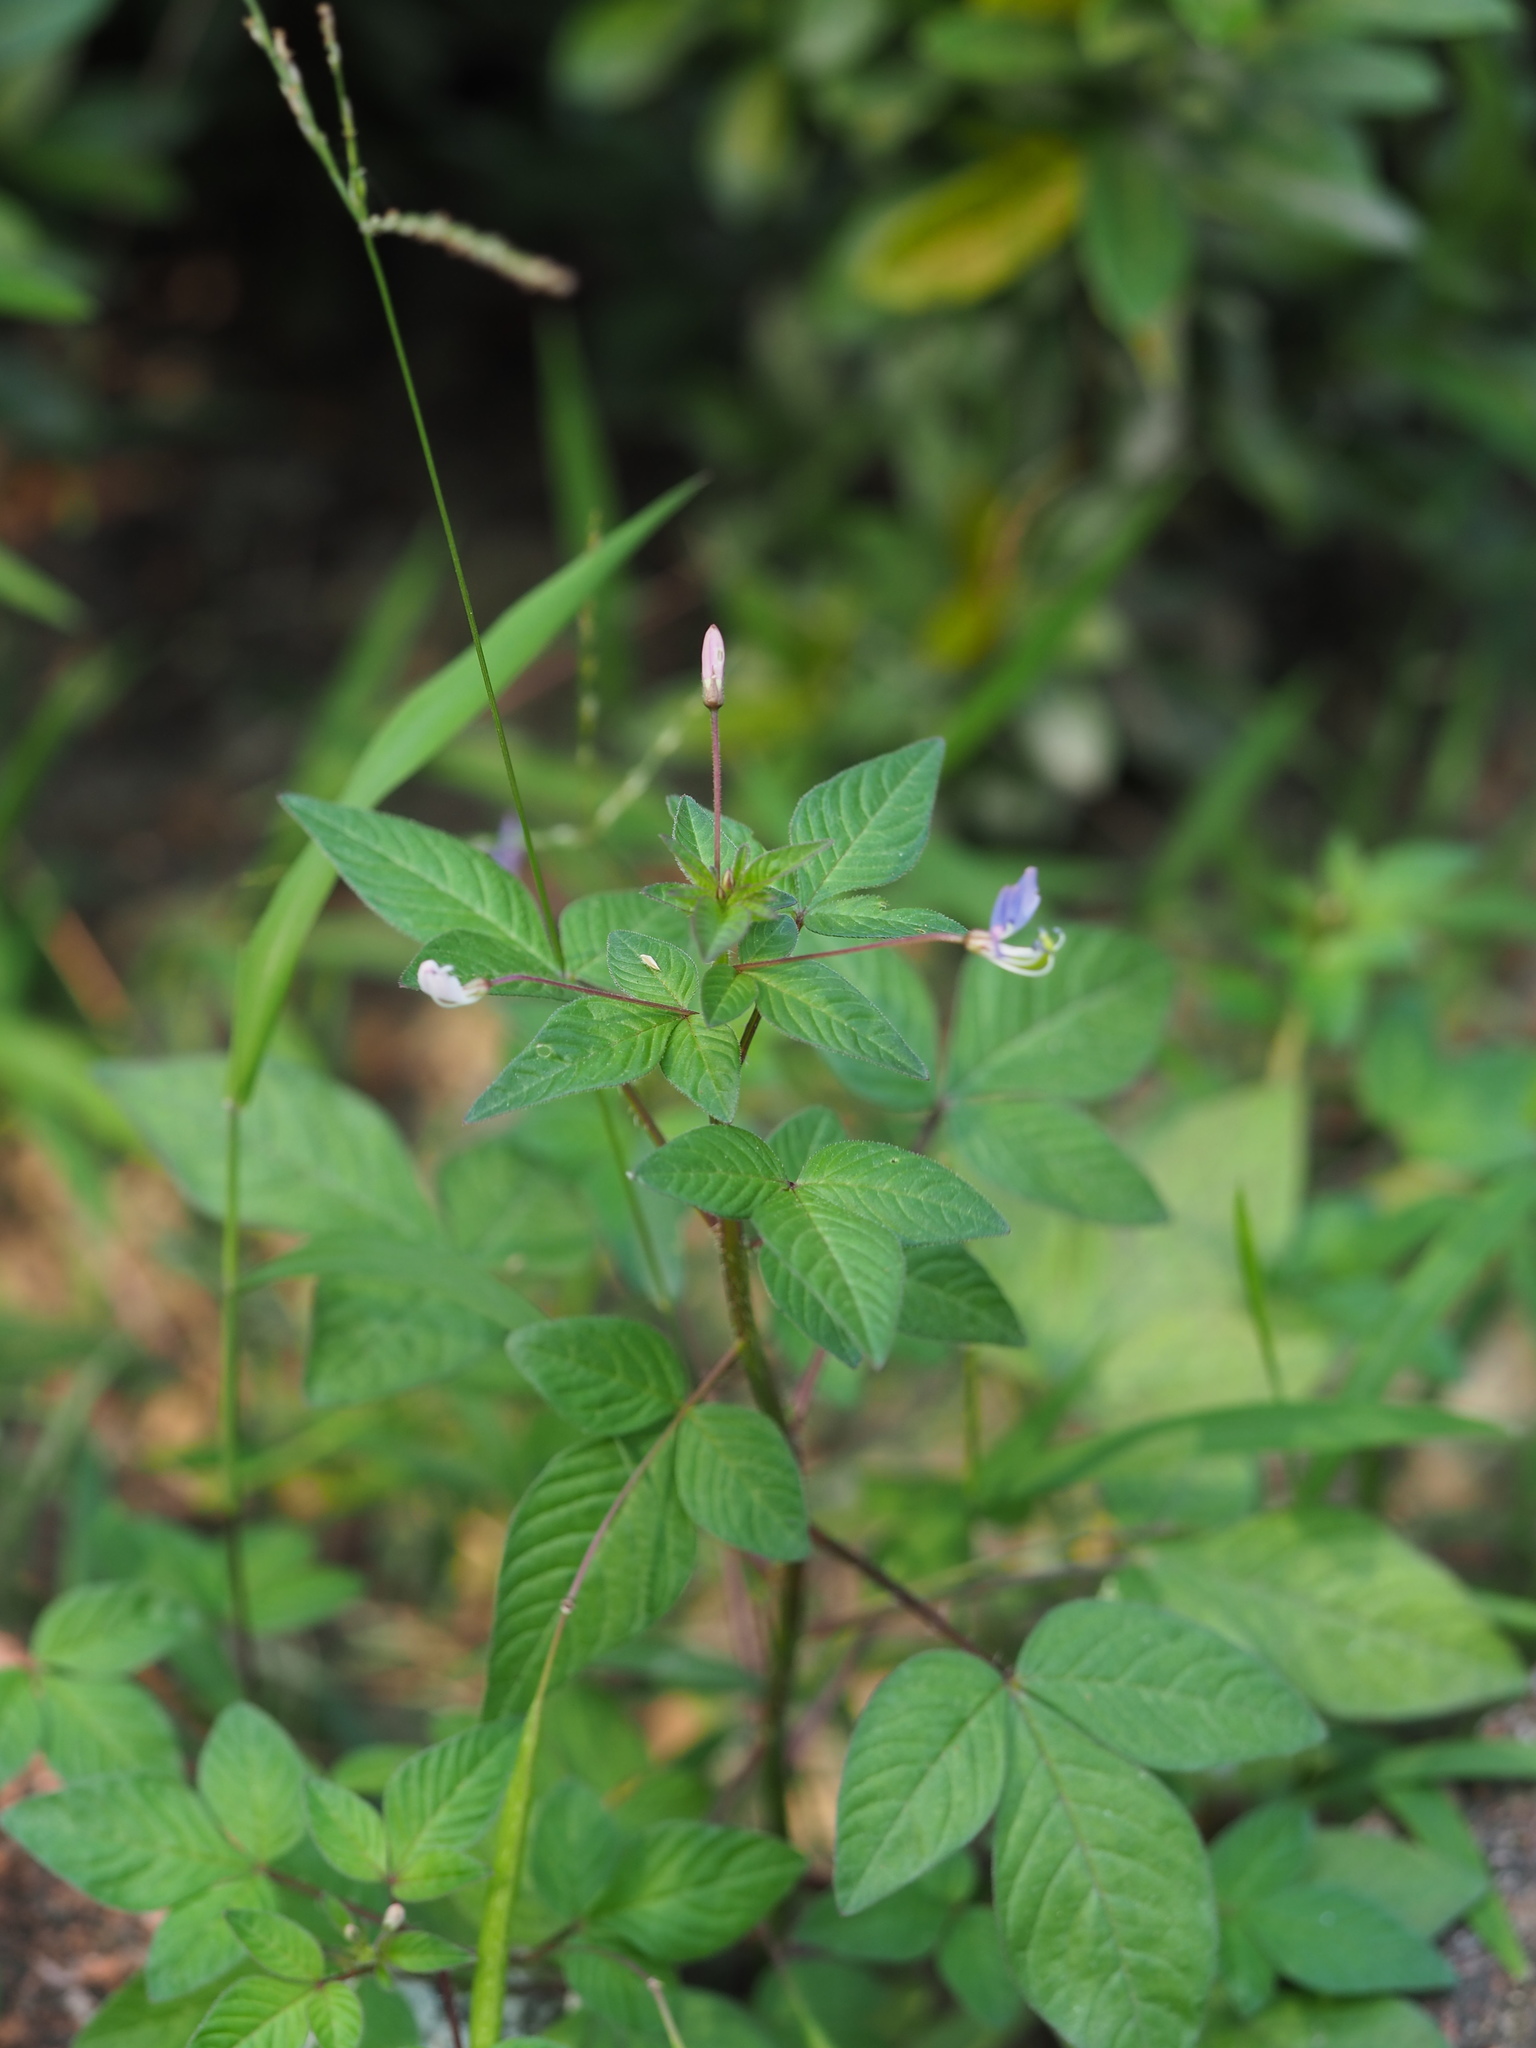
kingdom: Plantae
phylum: Tracheophyta
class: Magnoliopsida
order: Brassicales
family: Cleomaceae
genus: Sieruela
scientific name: Sieruela rutidosperma
